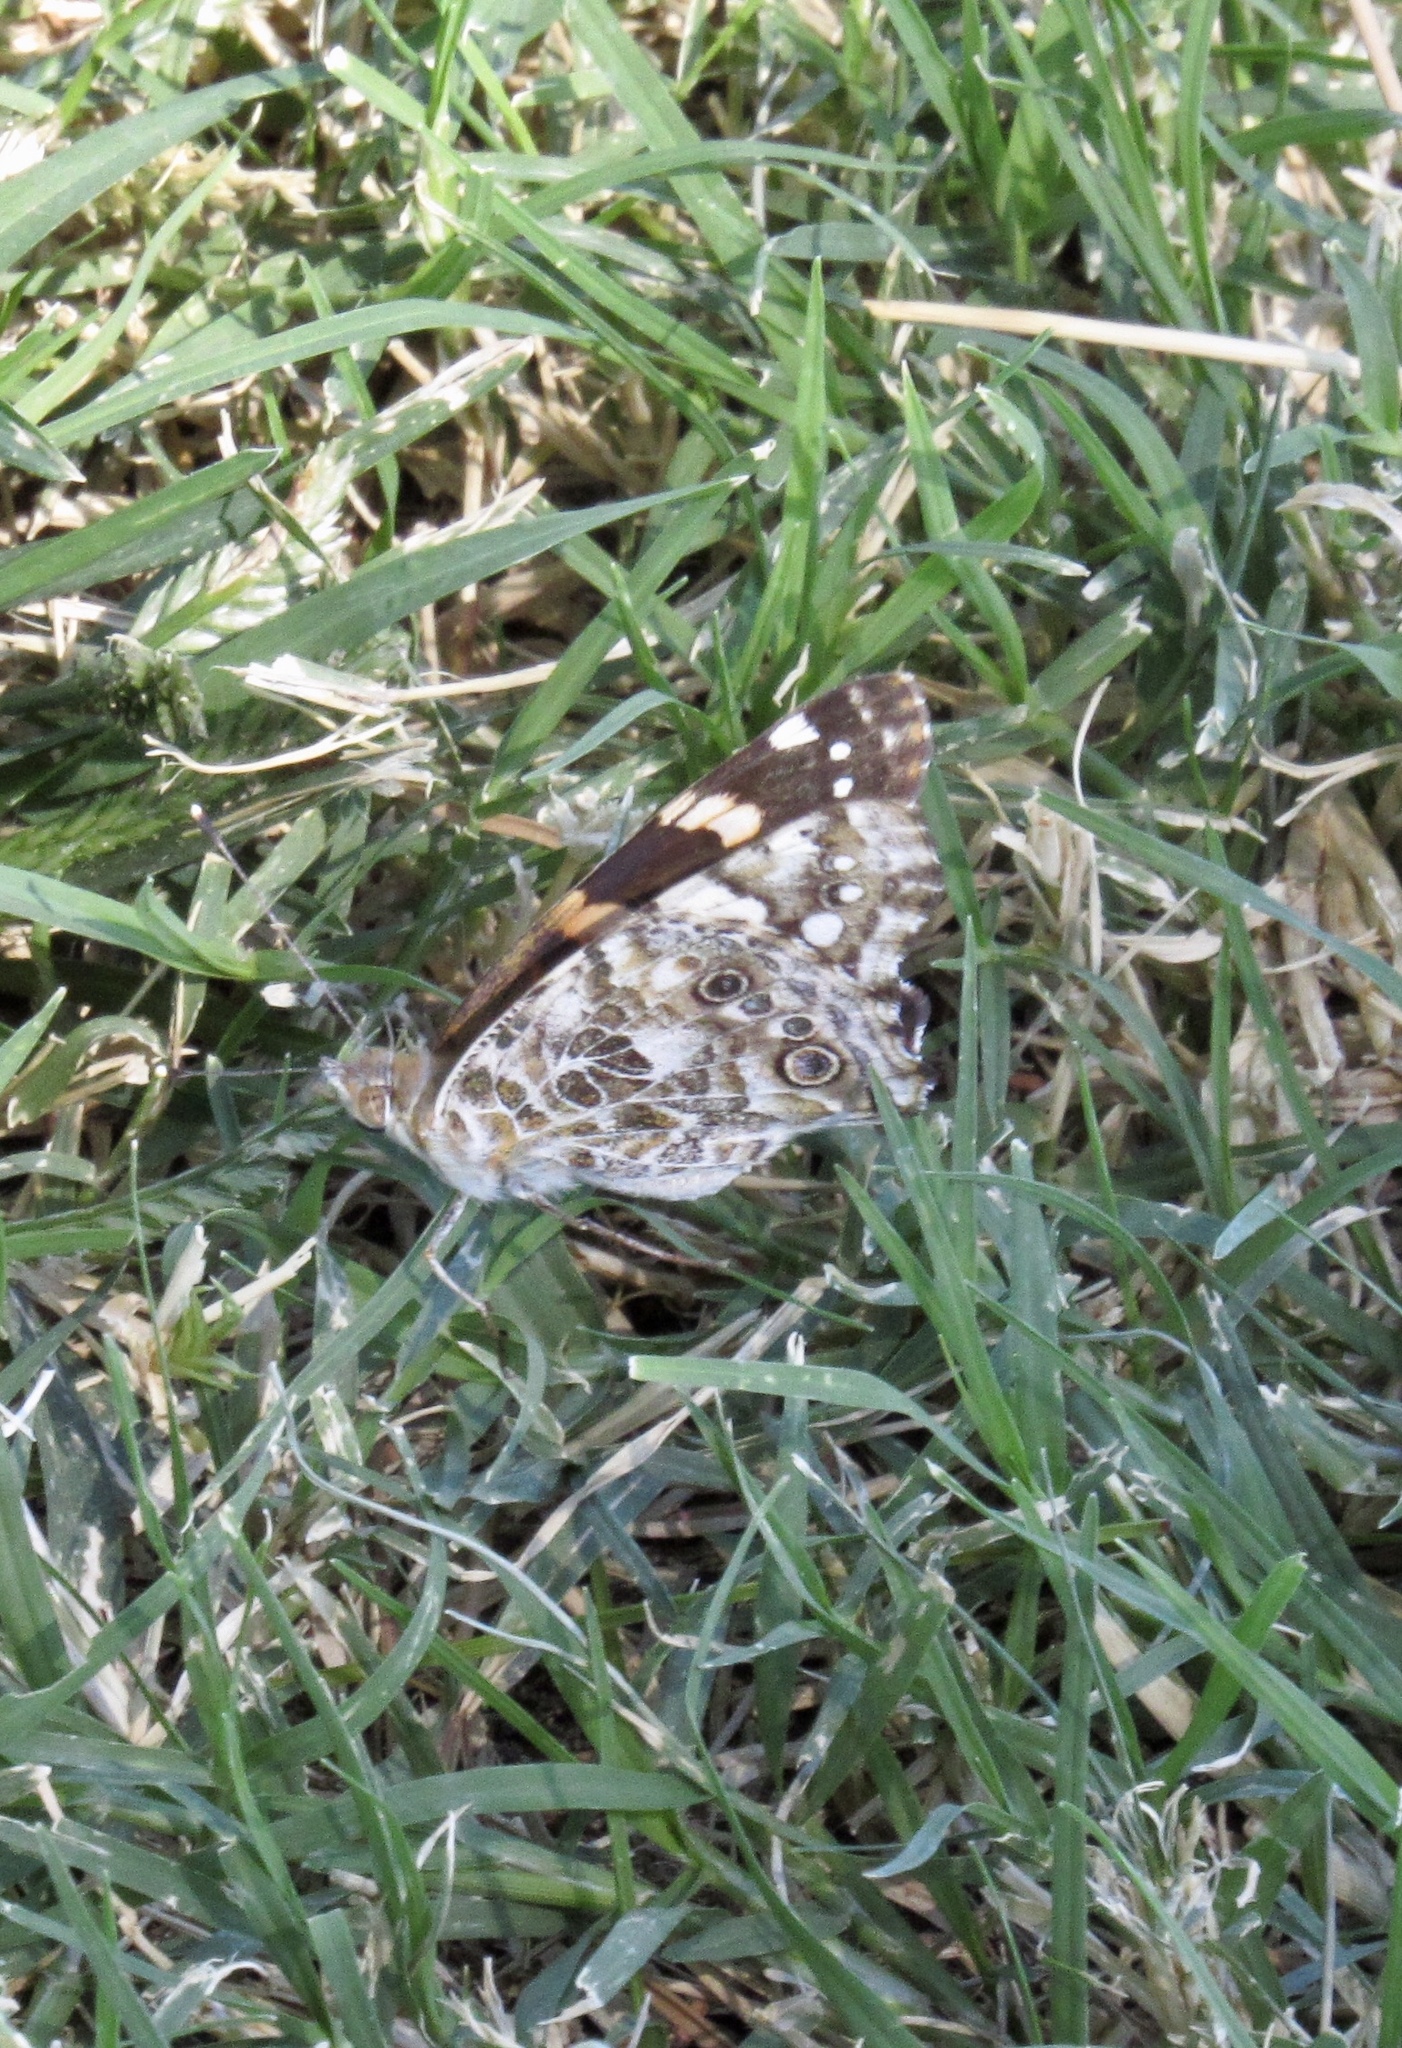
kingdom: Animalia
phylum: Arthropoda
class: Insecta
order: Lepidoptera
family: Nymphalidae
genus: Vanessa
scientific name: Vanessa cardui
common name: Painted lady
